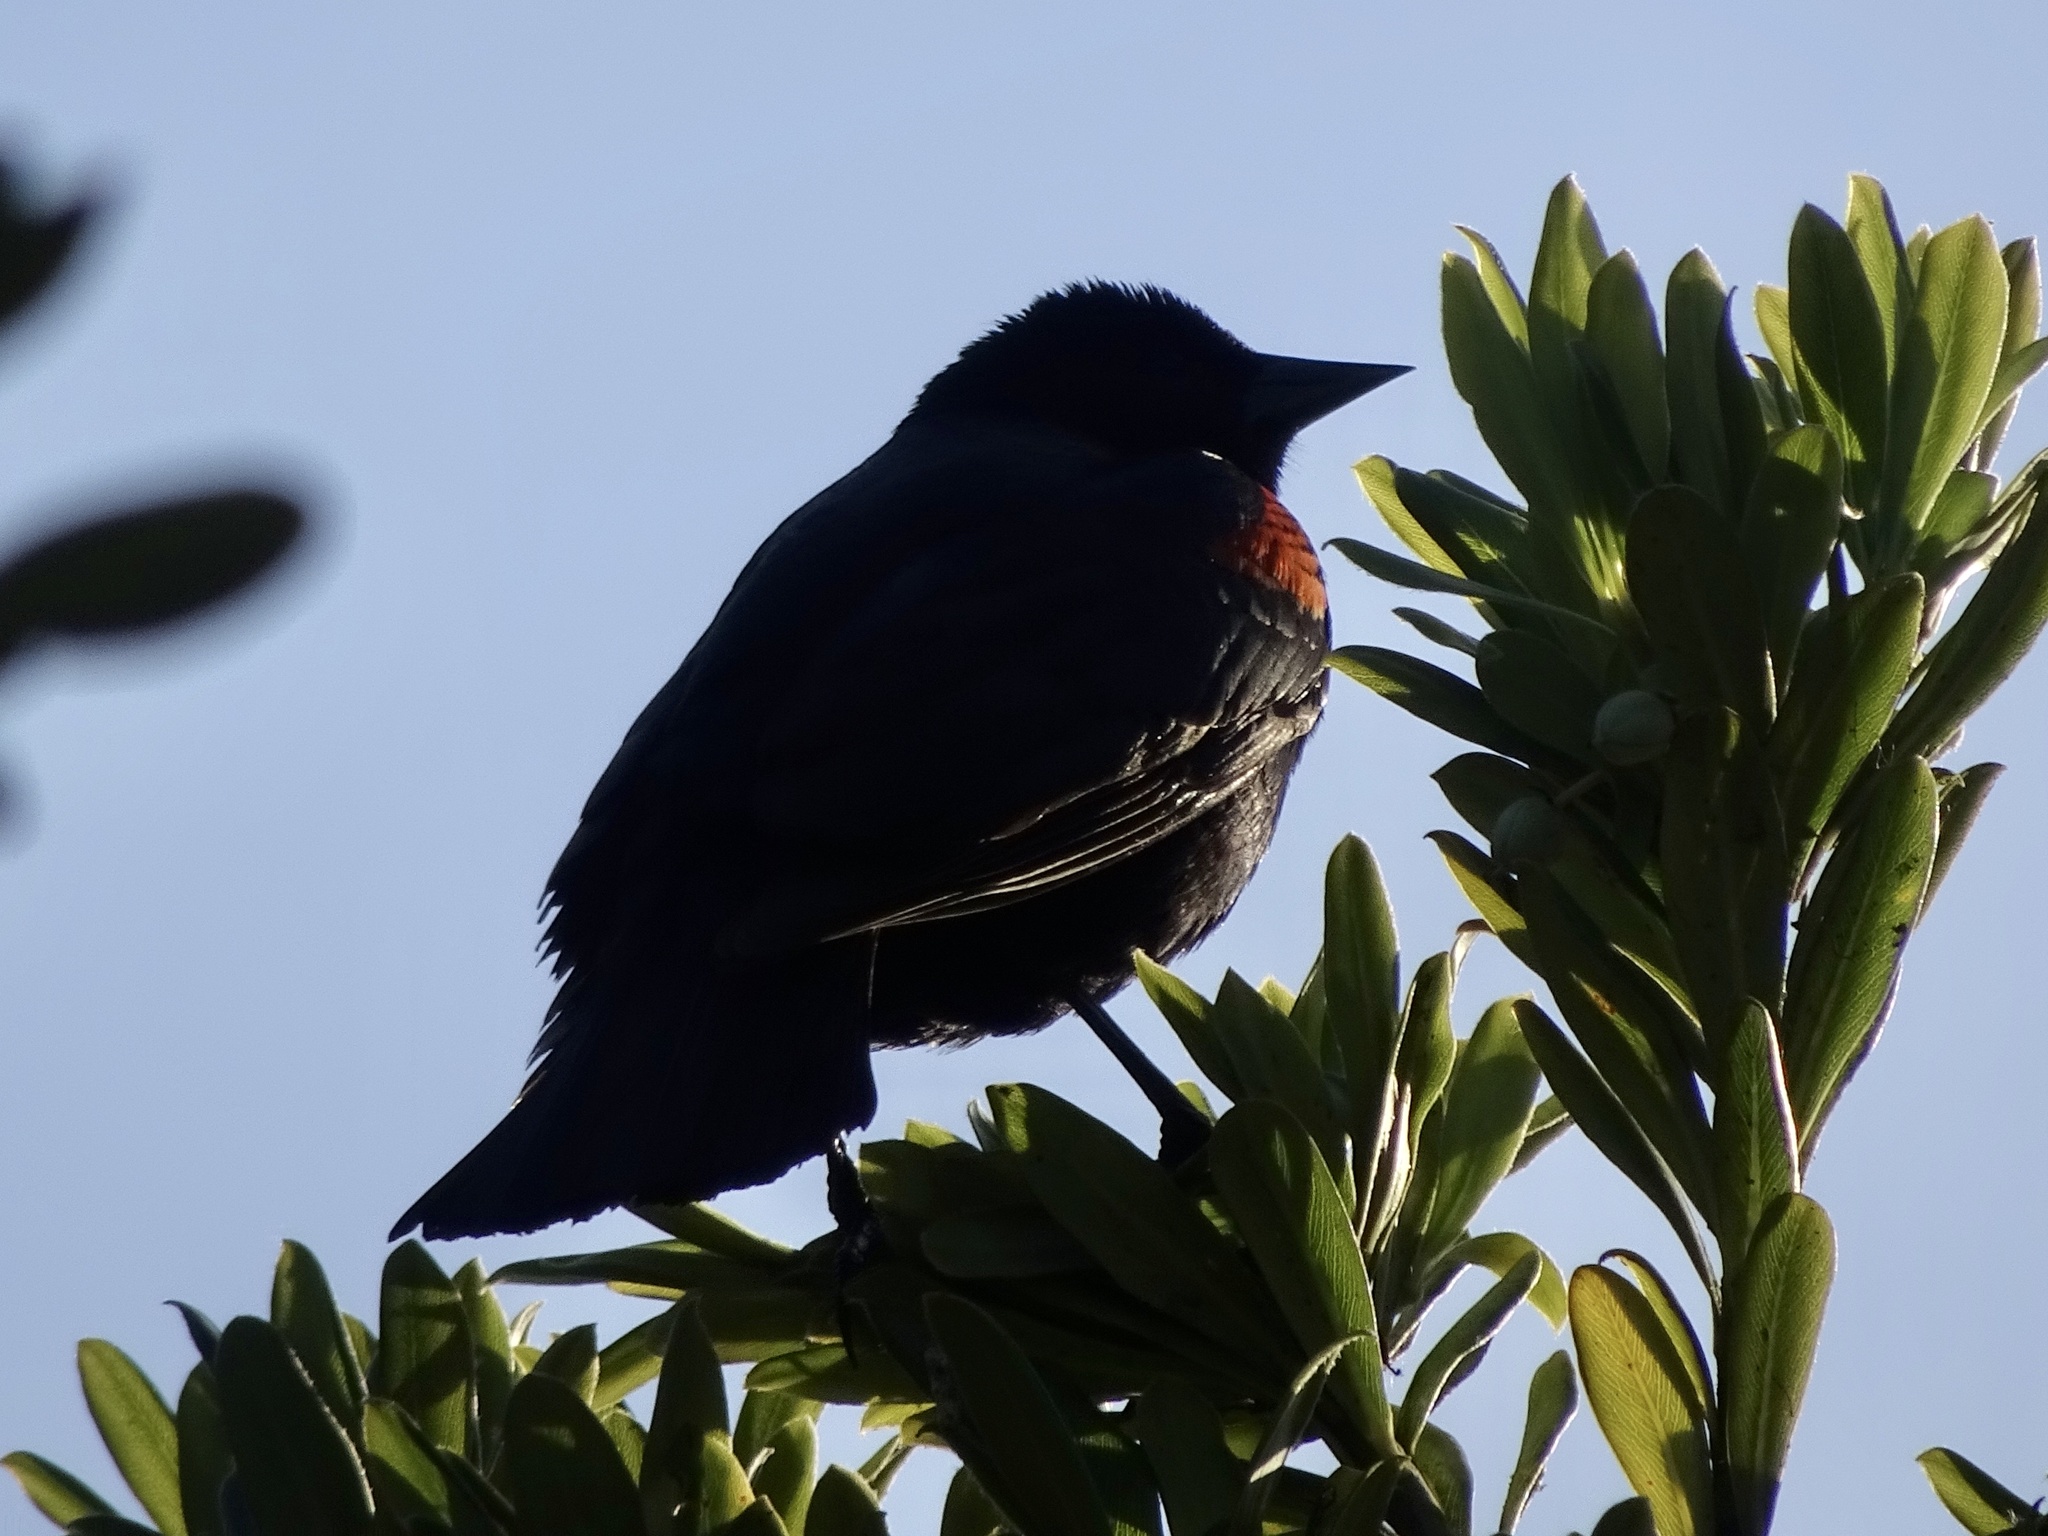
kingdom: Animalia
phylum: Chordata
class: Aves
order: Passeriformes
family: Icteridae
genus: Agelaius
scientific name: Agelaius phoeniceus
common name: Red-winged blackbird
